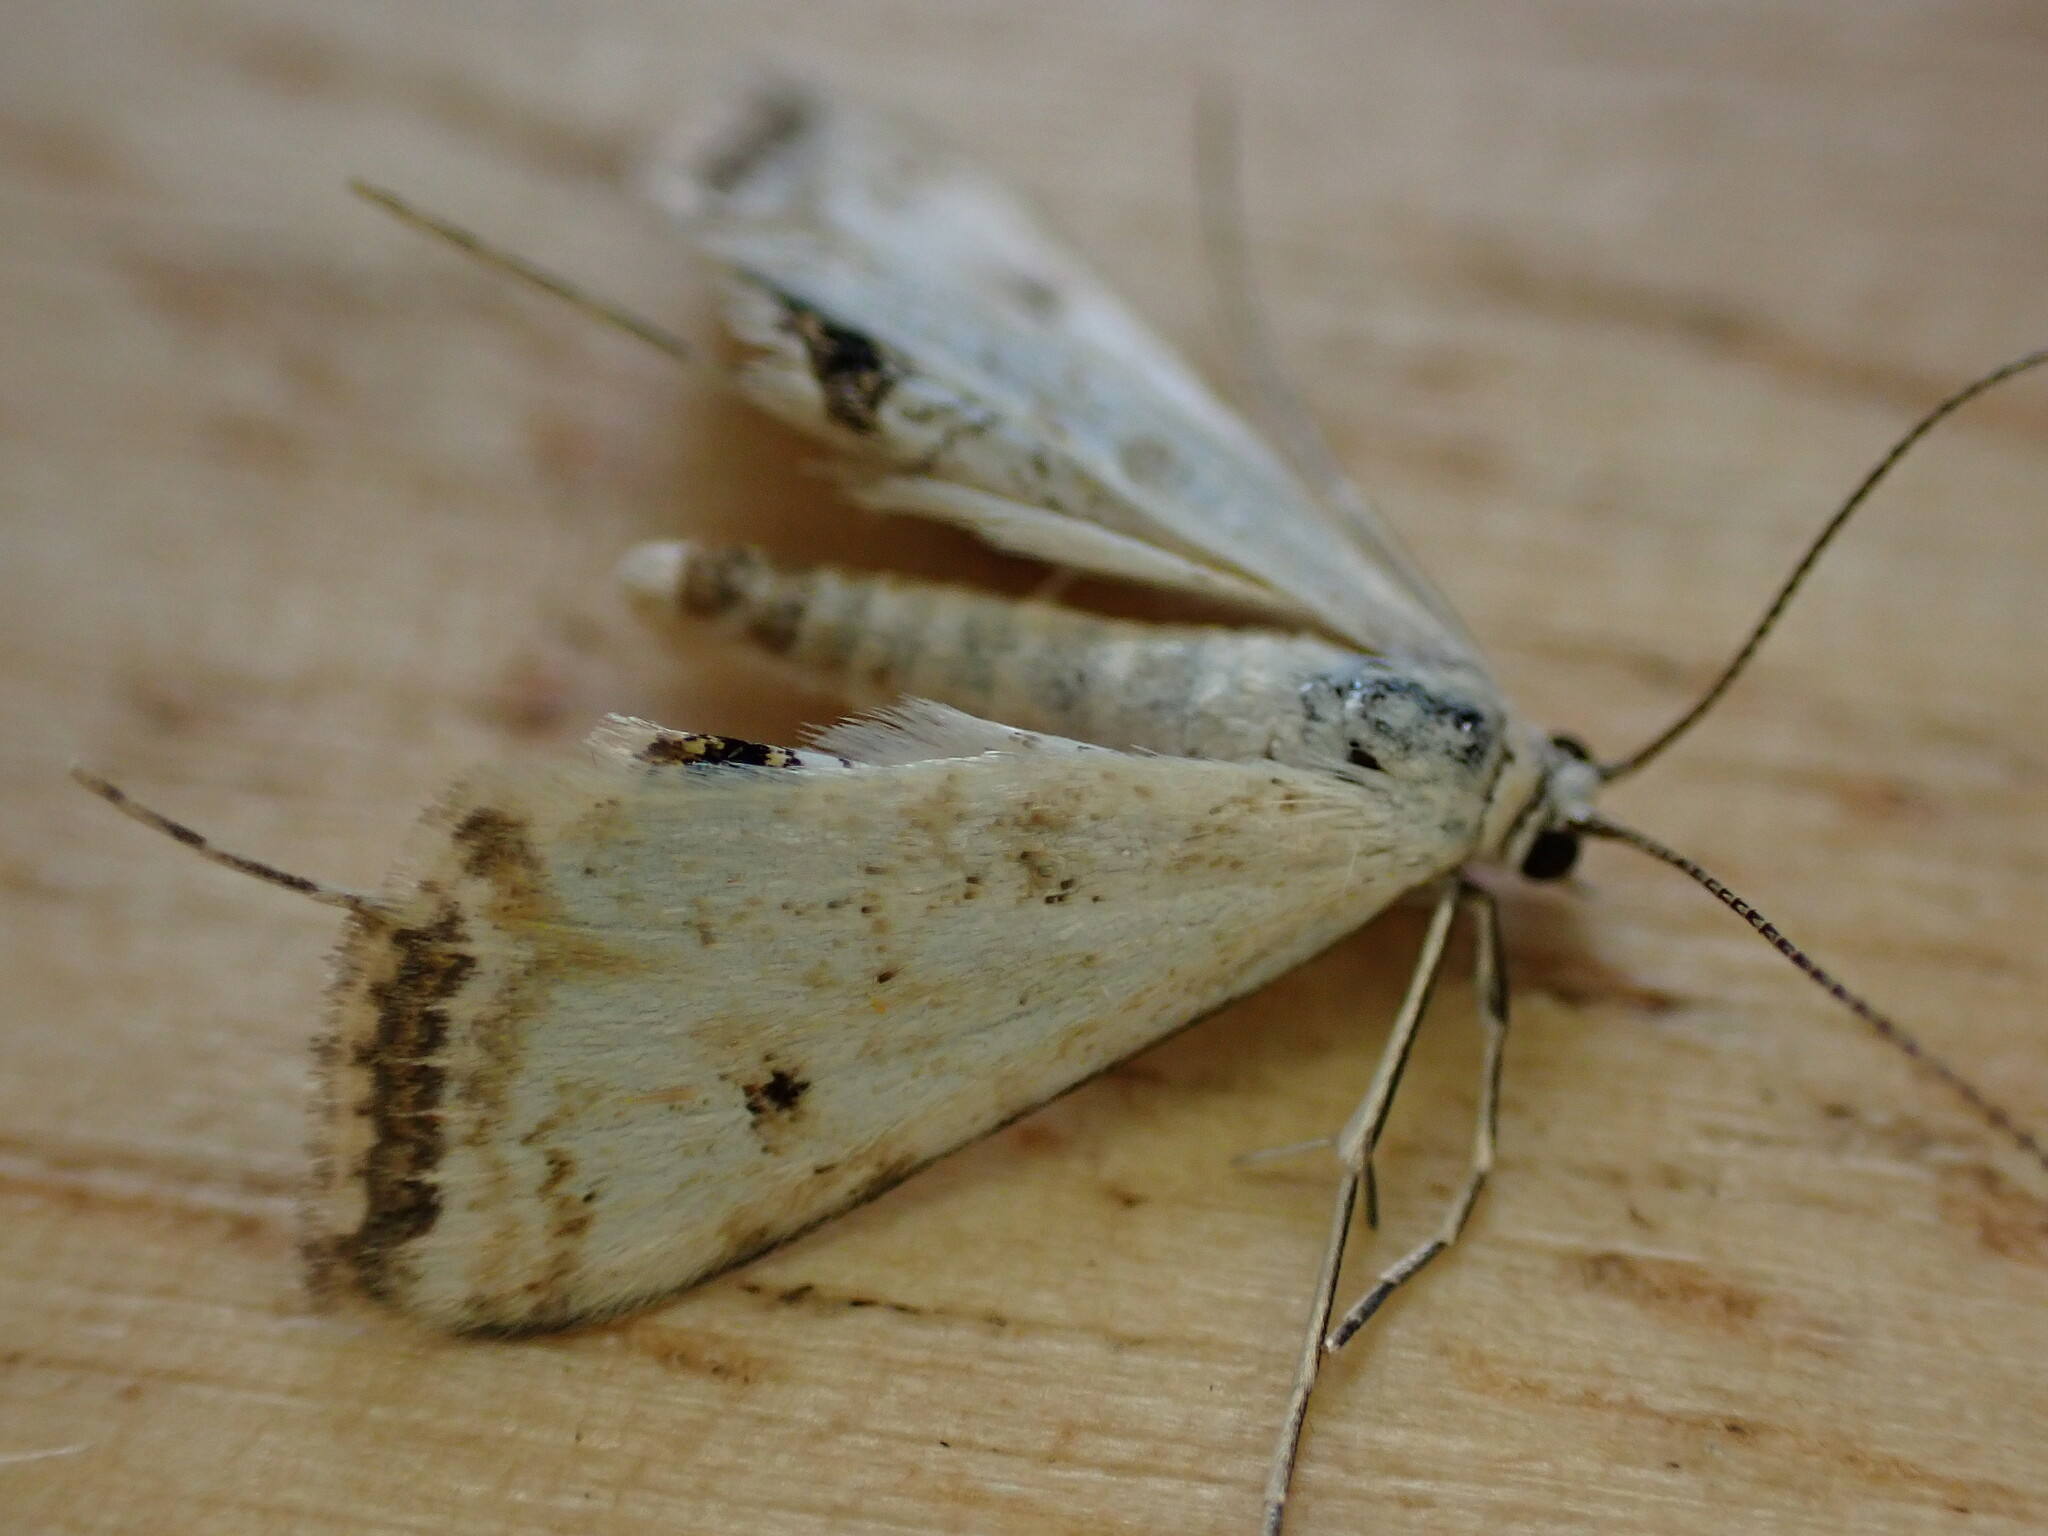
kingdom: Animalia
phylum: Arthropoda
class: Insecta
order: Lepidoptera
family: Crambidae
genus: Cataclysta
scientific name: Cataclysta lemnata
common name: Small china-mark
